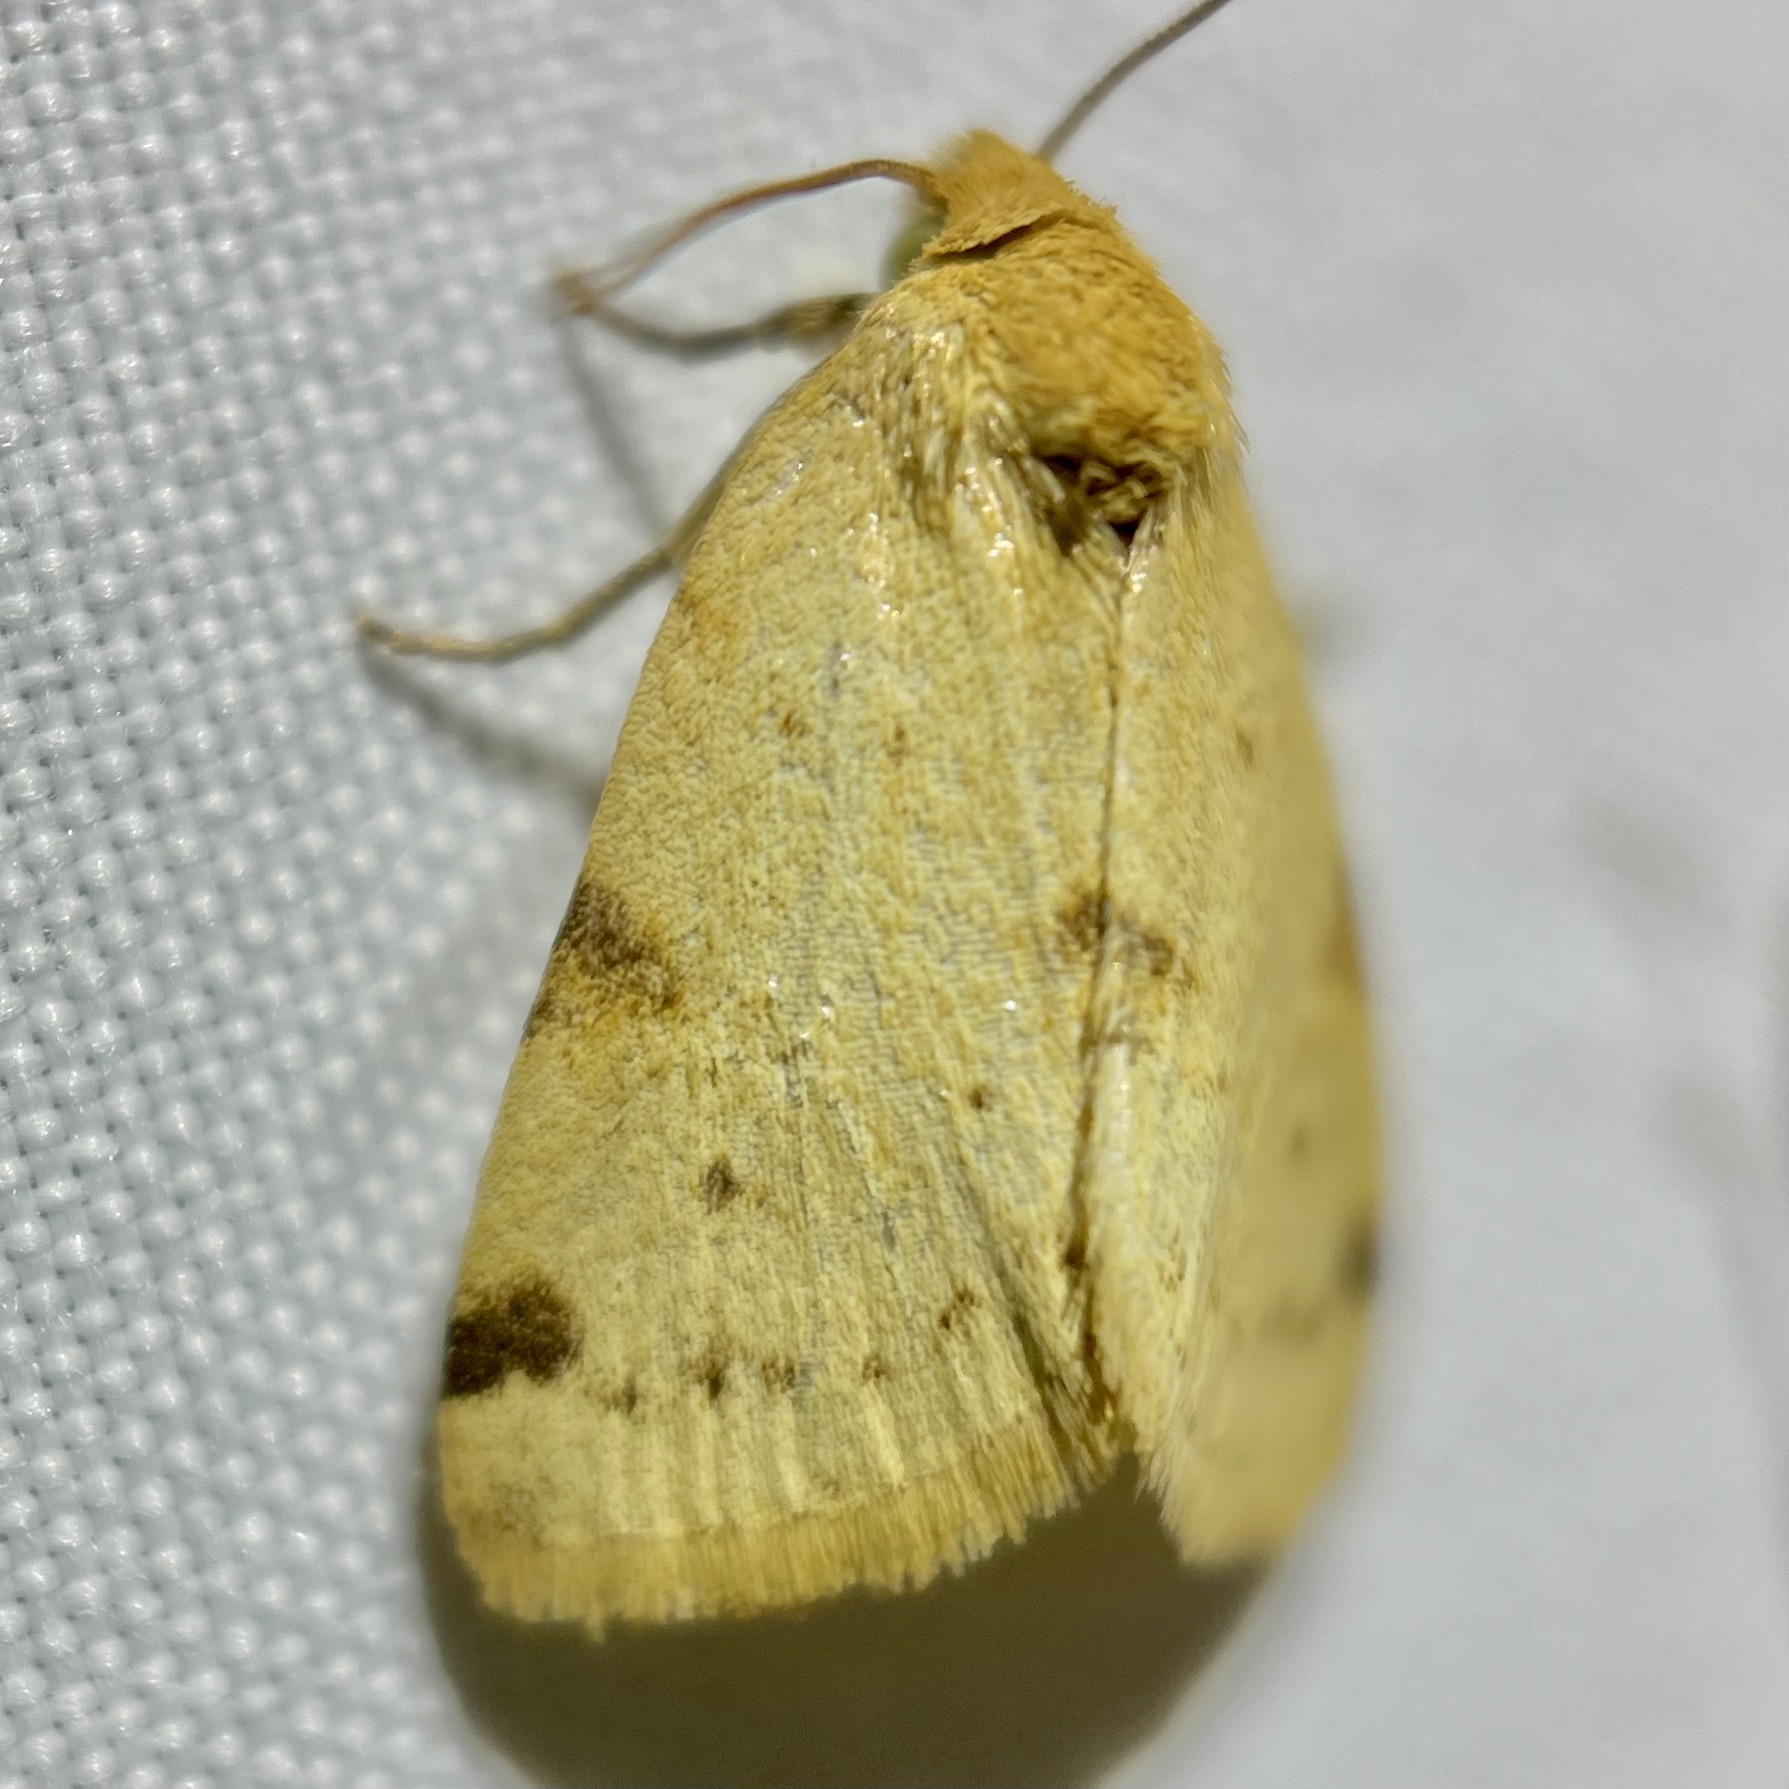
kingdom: Animalia
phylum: Arthropoda
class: Insecta
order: Lepidoptera
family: Noctuidae
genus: Azenia
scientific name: Azenia edentata
